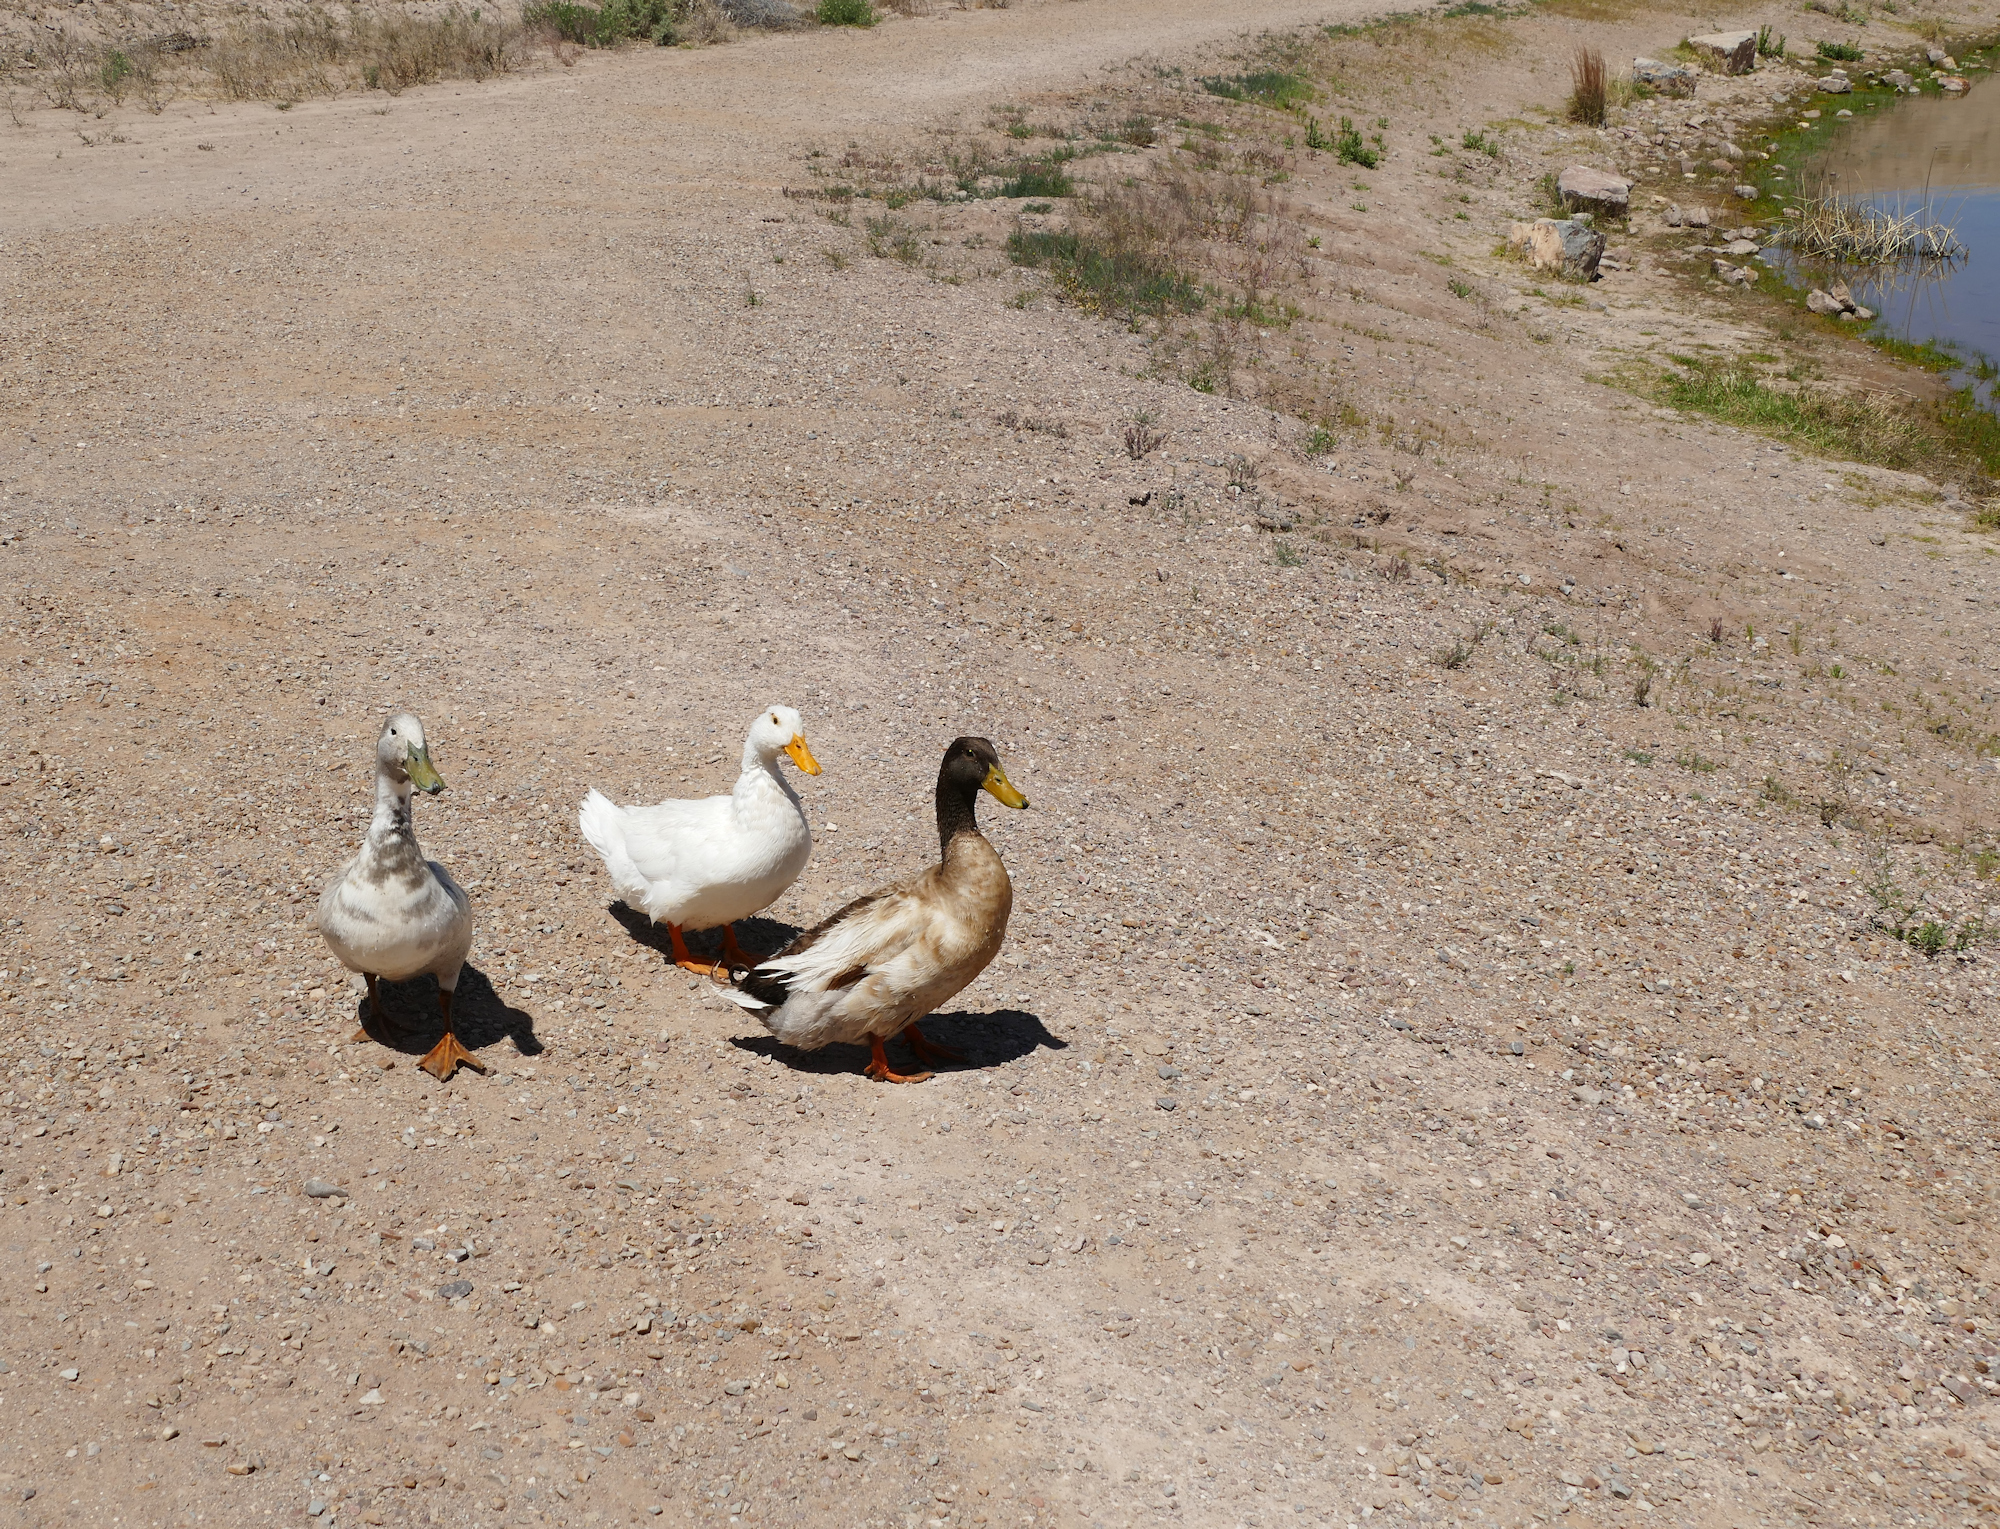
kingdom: Animalia
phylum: Chordata
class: Aves
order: Anseriformes
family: Anatidae
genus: Anas
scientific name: Anas platyrhynchos
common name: Mallard
